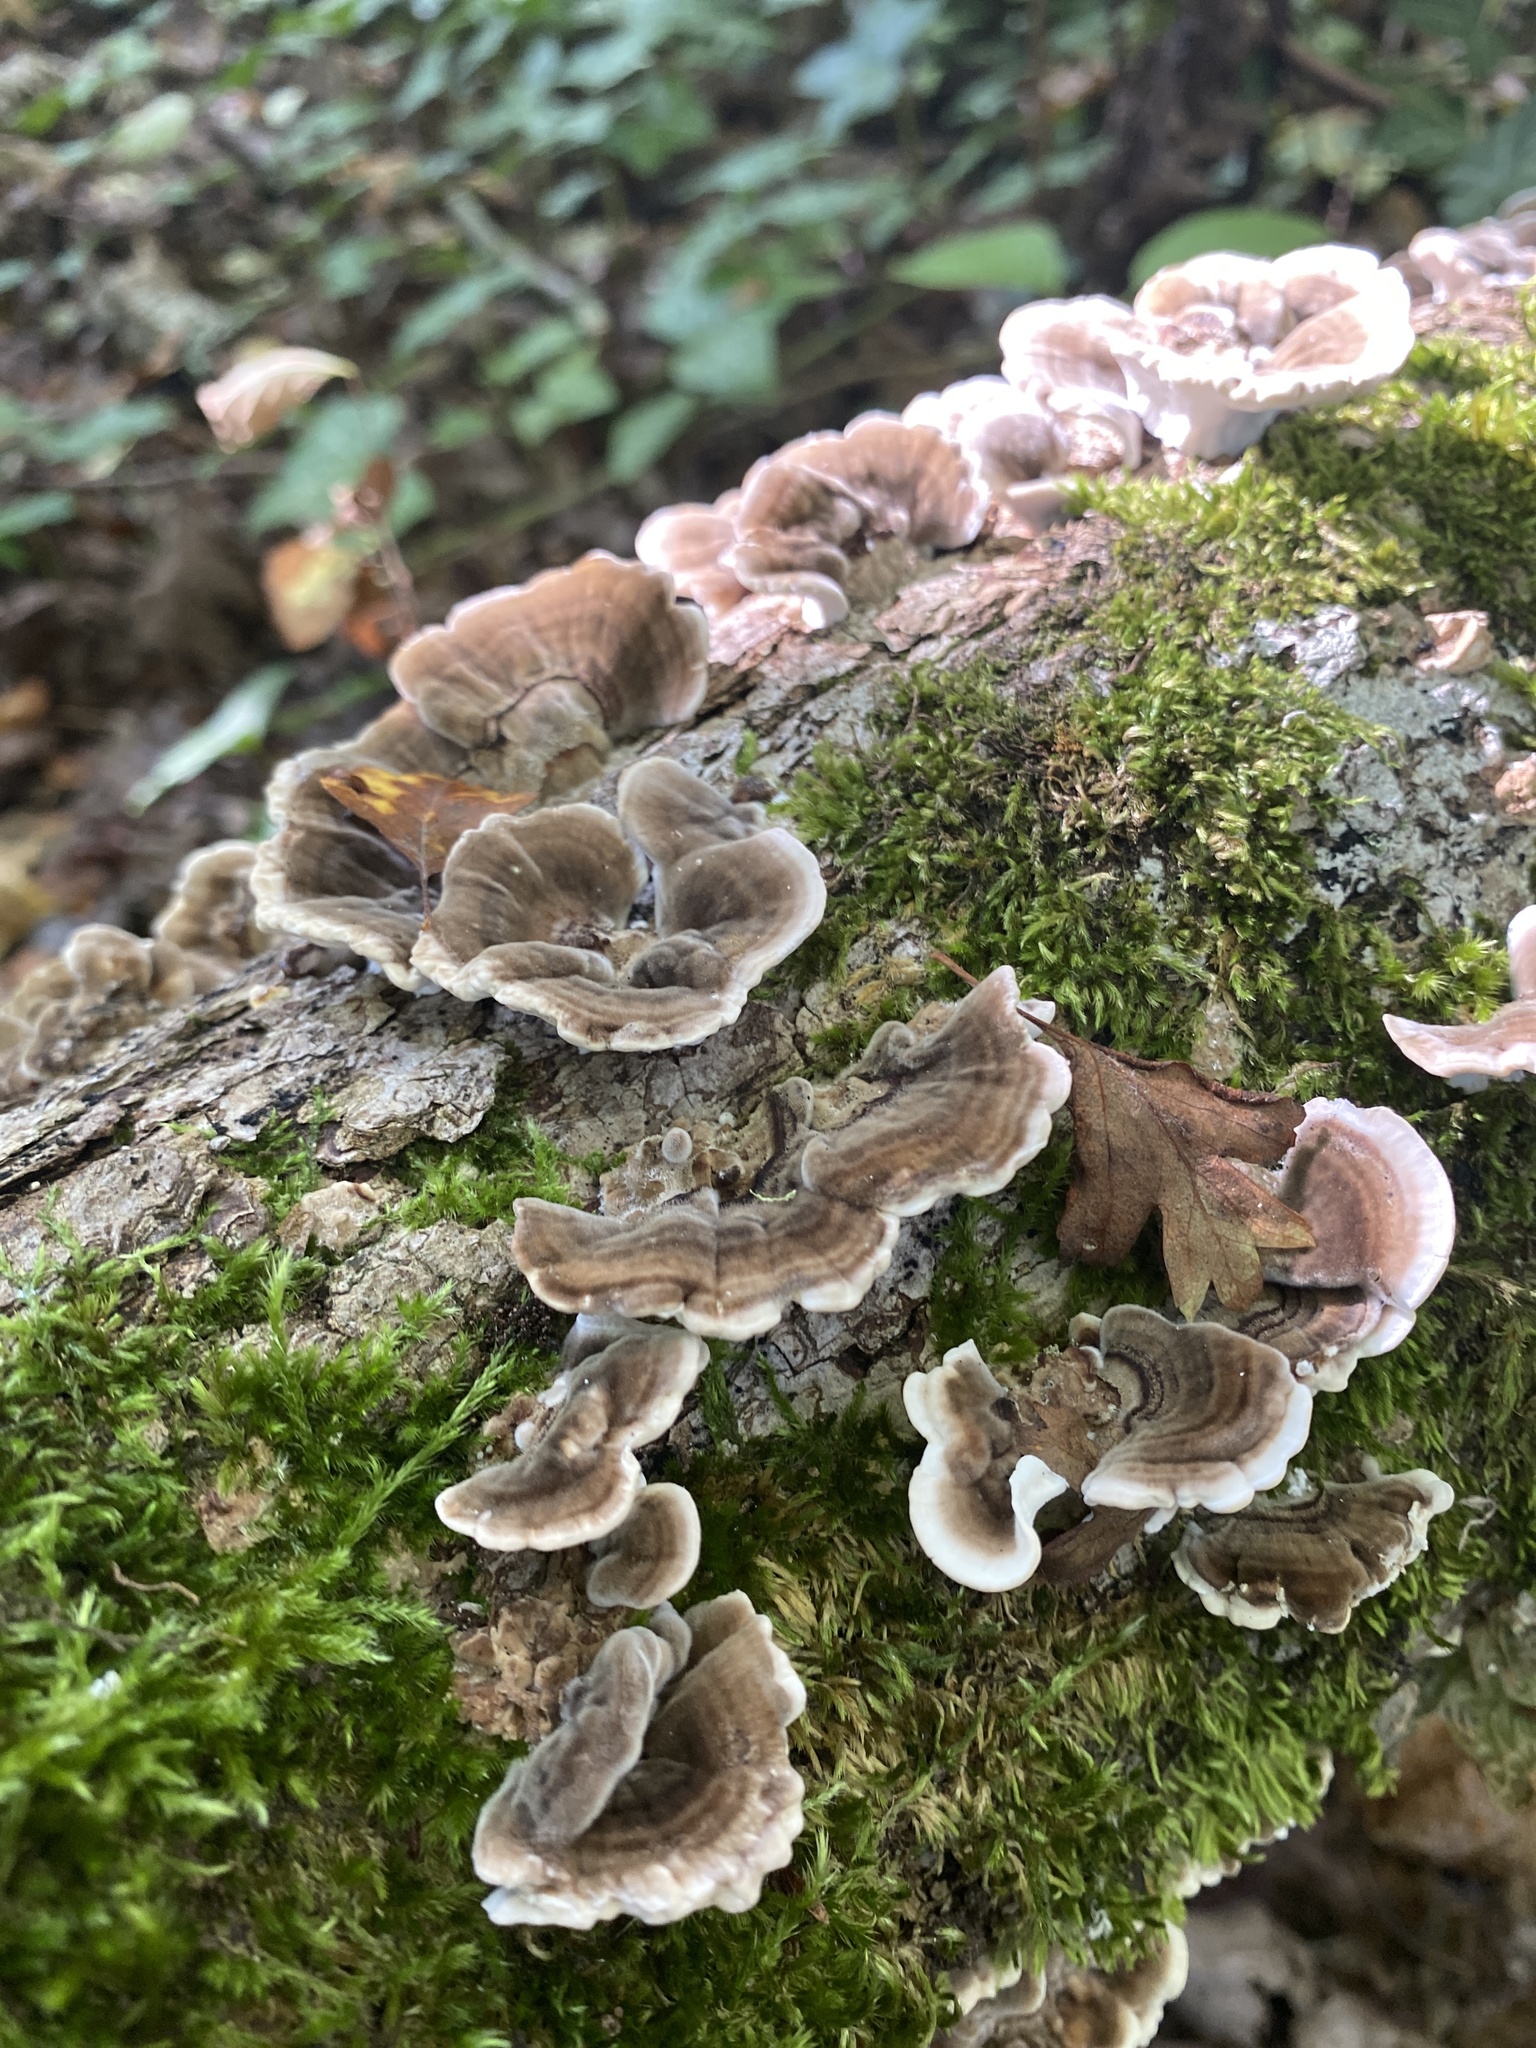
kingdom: Fungi
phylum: Basidiomycota
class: Agaricomycetes
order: Polyporales
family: Polyporaceae
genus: Trametes
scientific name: Trametes versicolor
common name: Turkeytail
